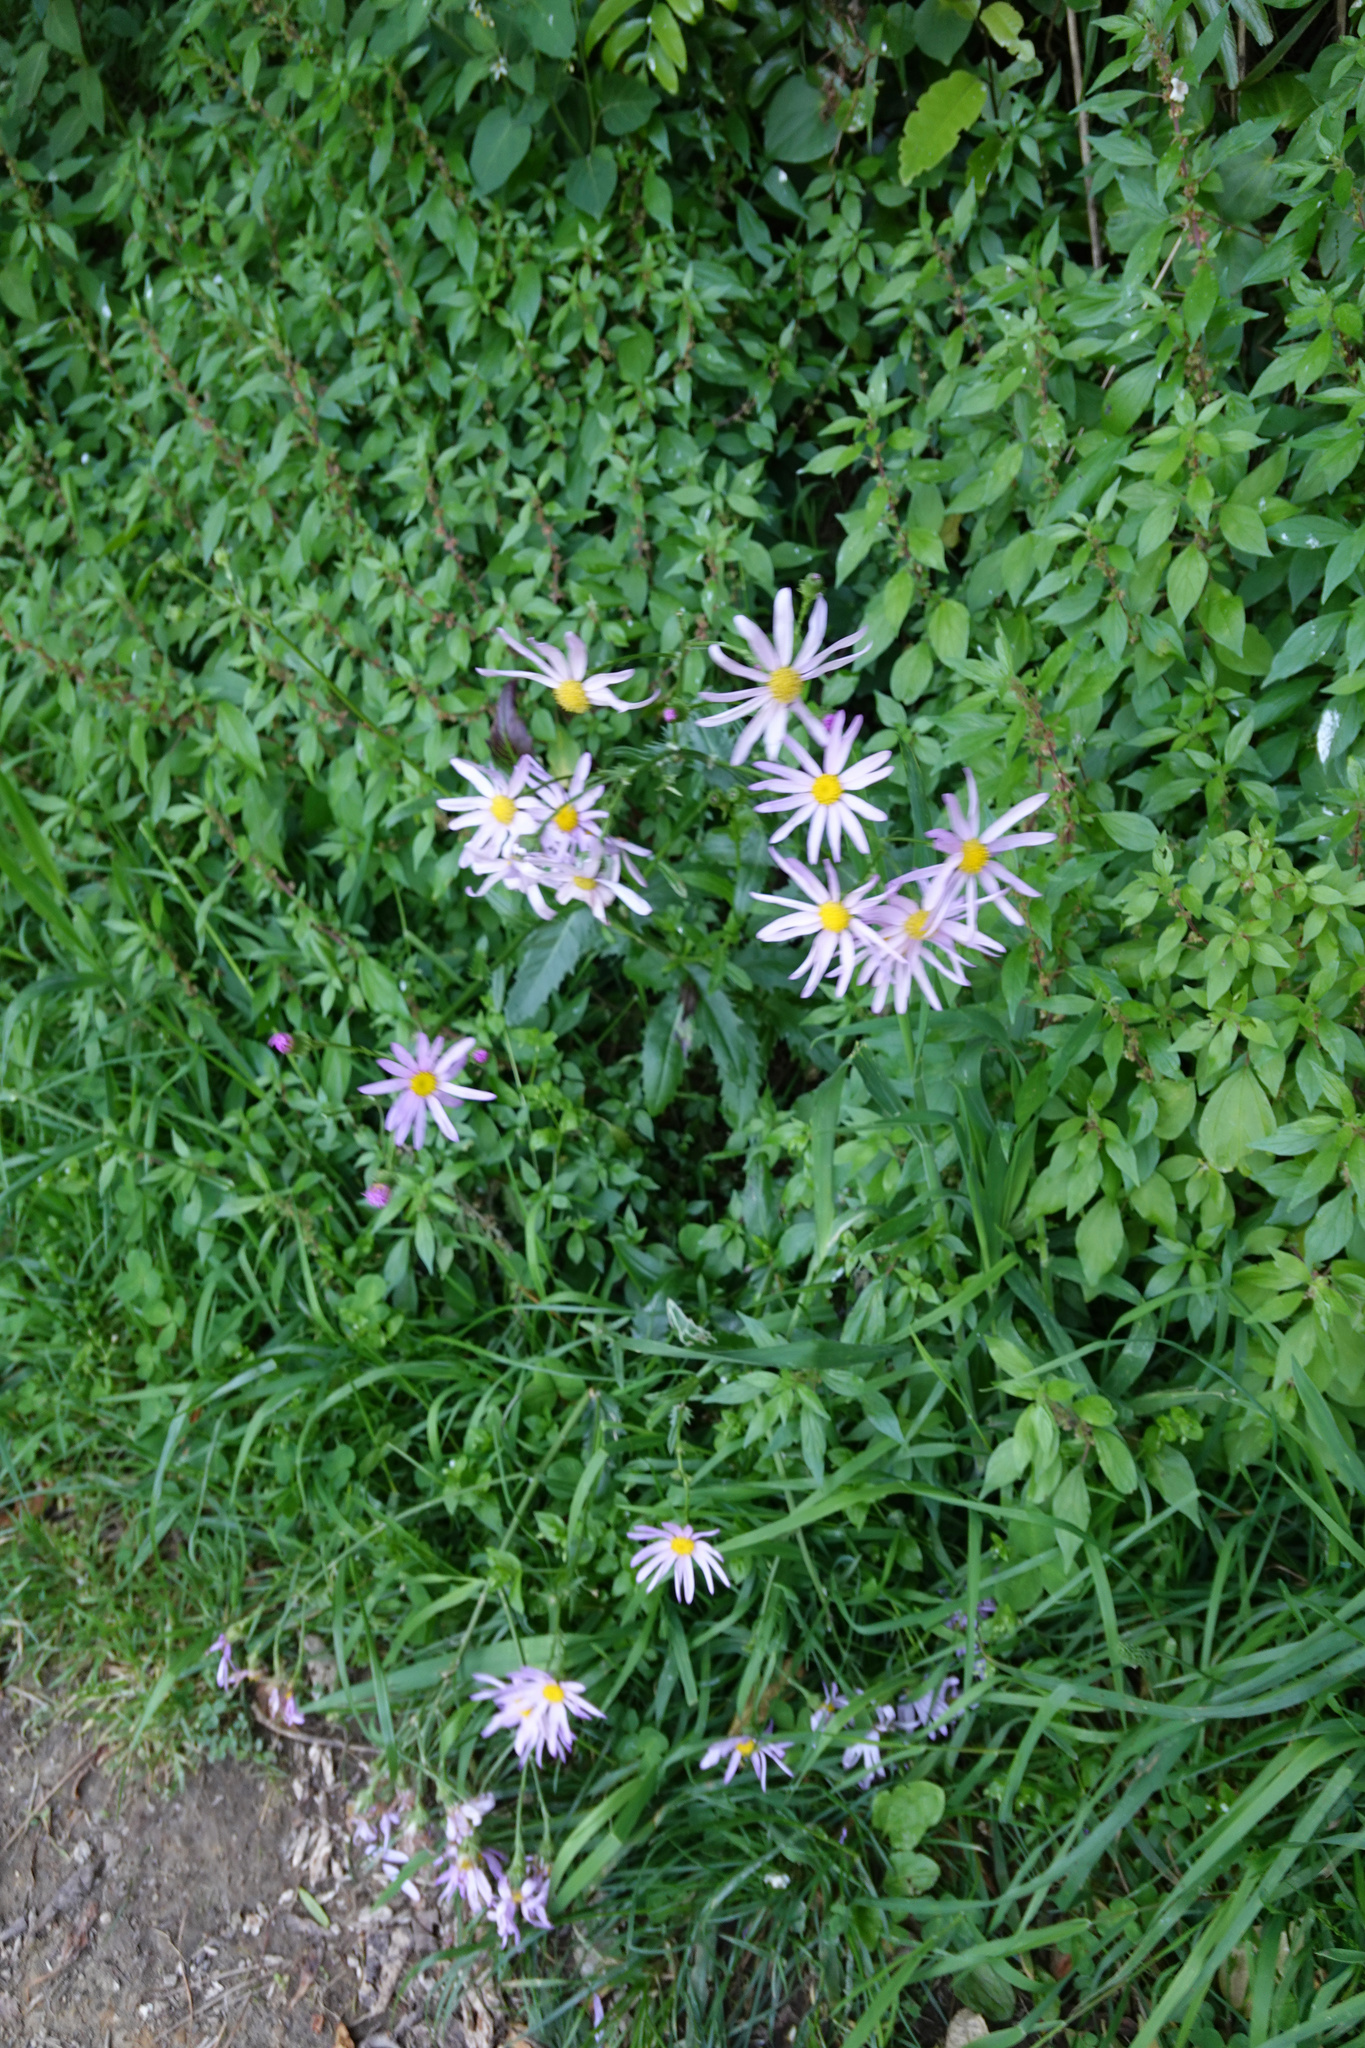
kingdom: Plantae
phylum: Tracheophyta
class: Magnoliopsida
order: Asterales
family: Asteraceae
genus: Senecio
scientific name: Senecio glastifolius
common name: Woad-leaved ragwort
